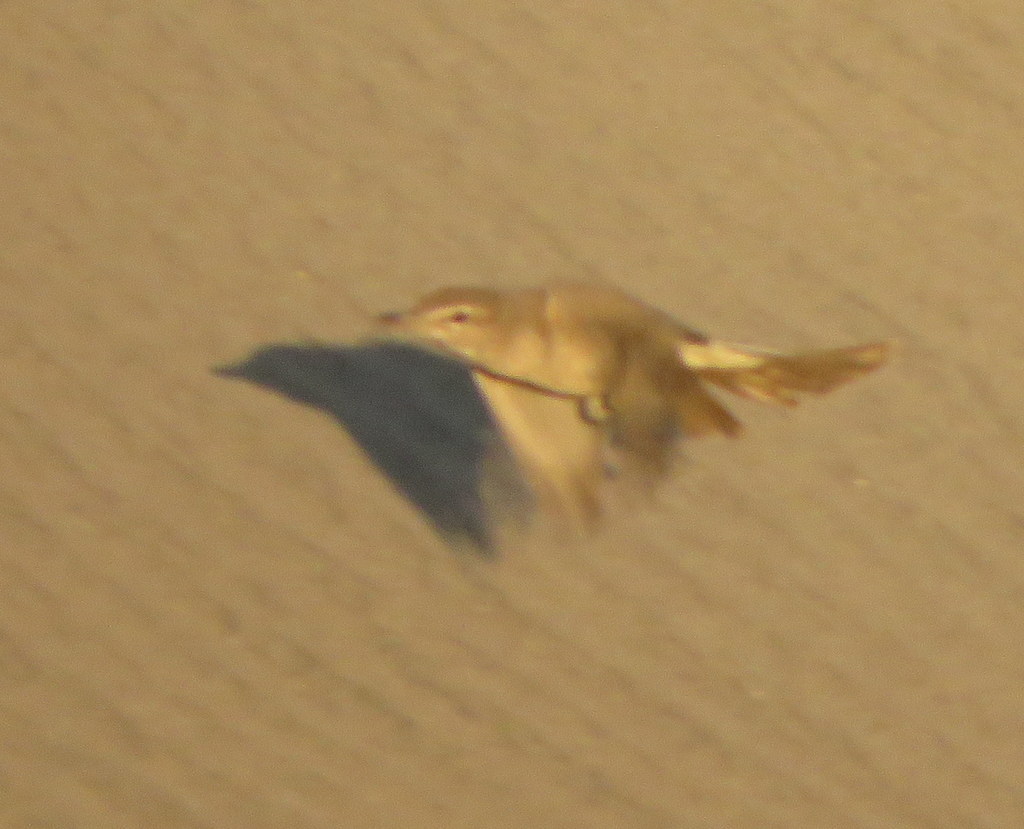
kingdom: Animalia
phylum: Chordata
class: Aves
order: Passeriformes
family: Tyrannidae
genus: Agriornis
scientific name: Agriornis micropterus
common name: Grey-bellied shrike-tyrant
